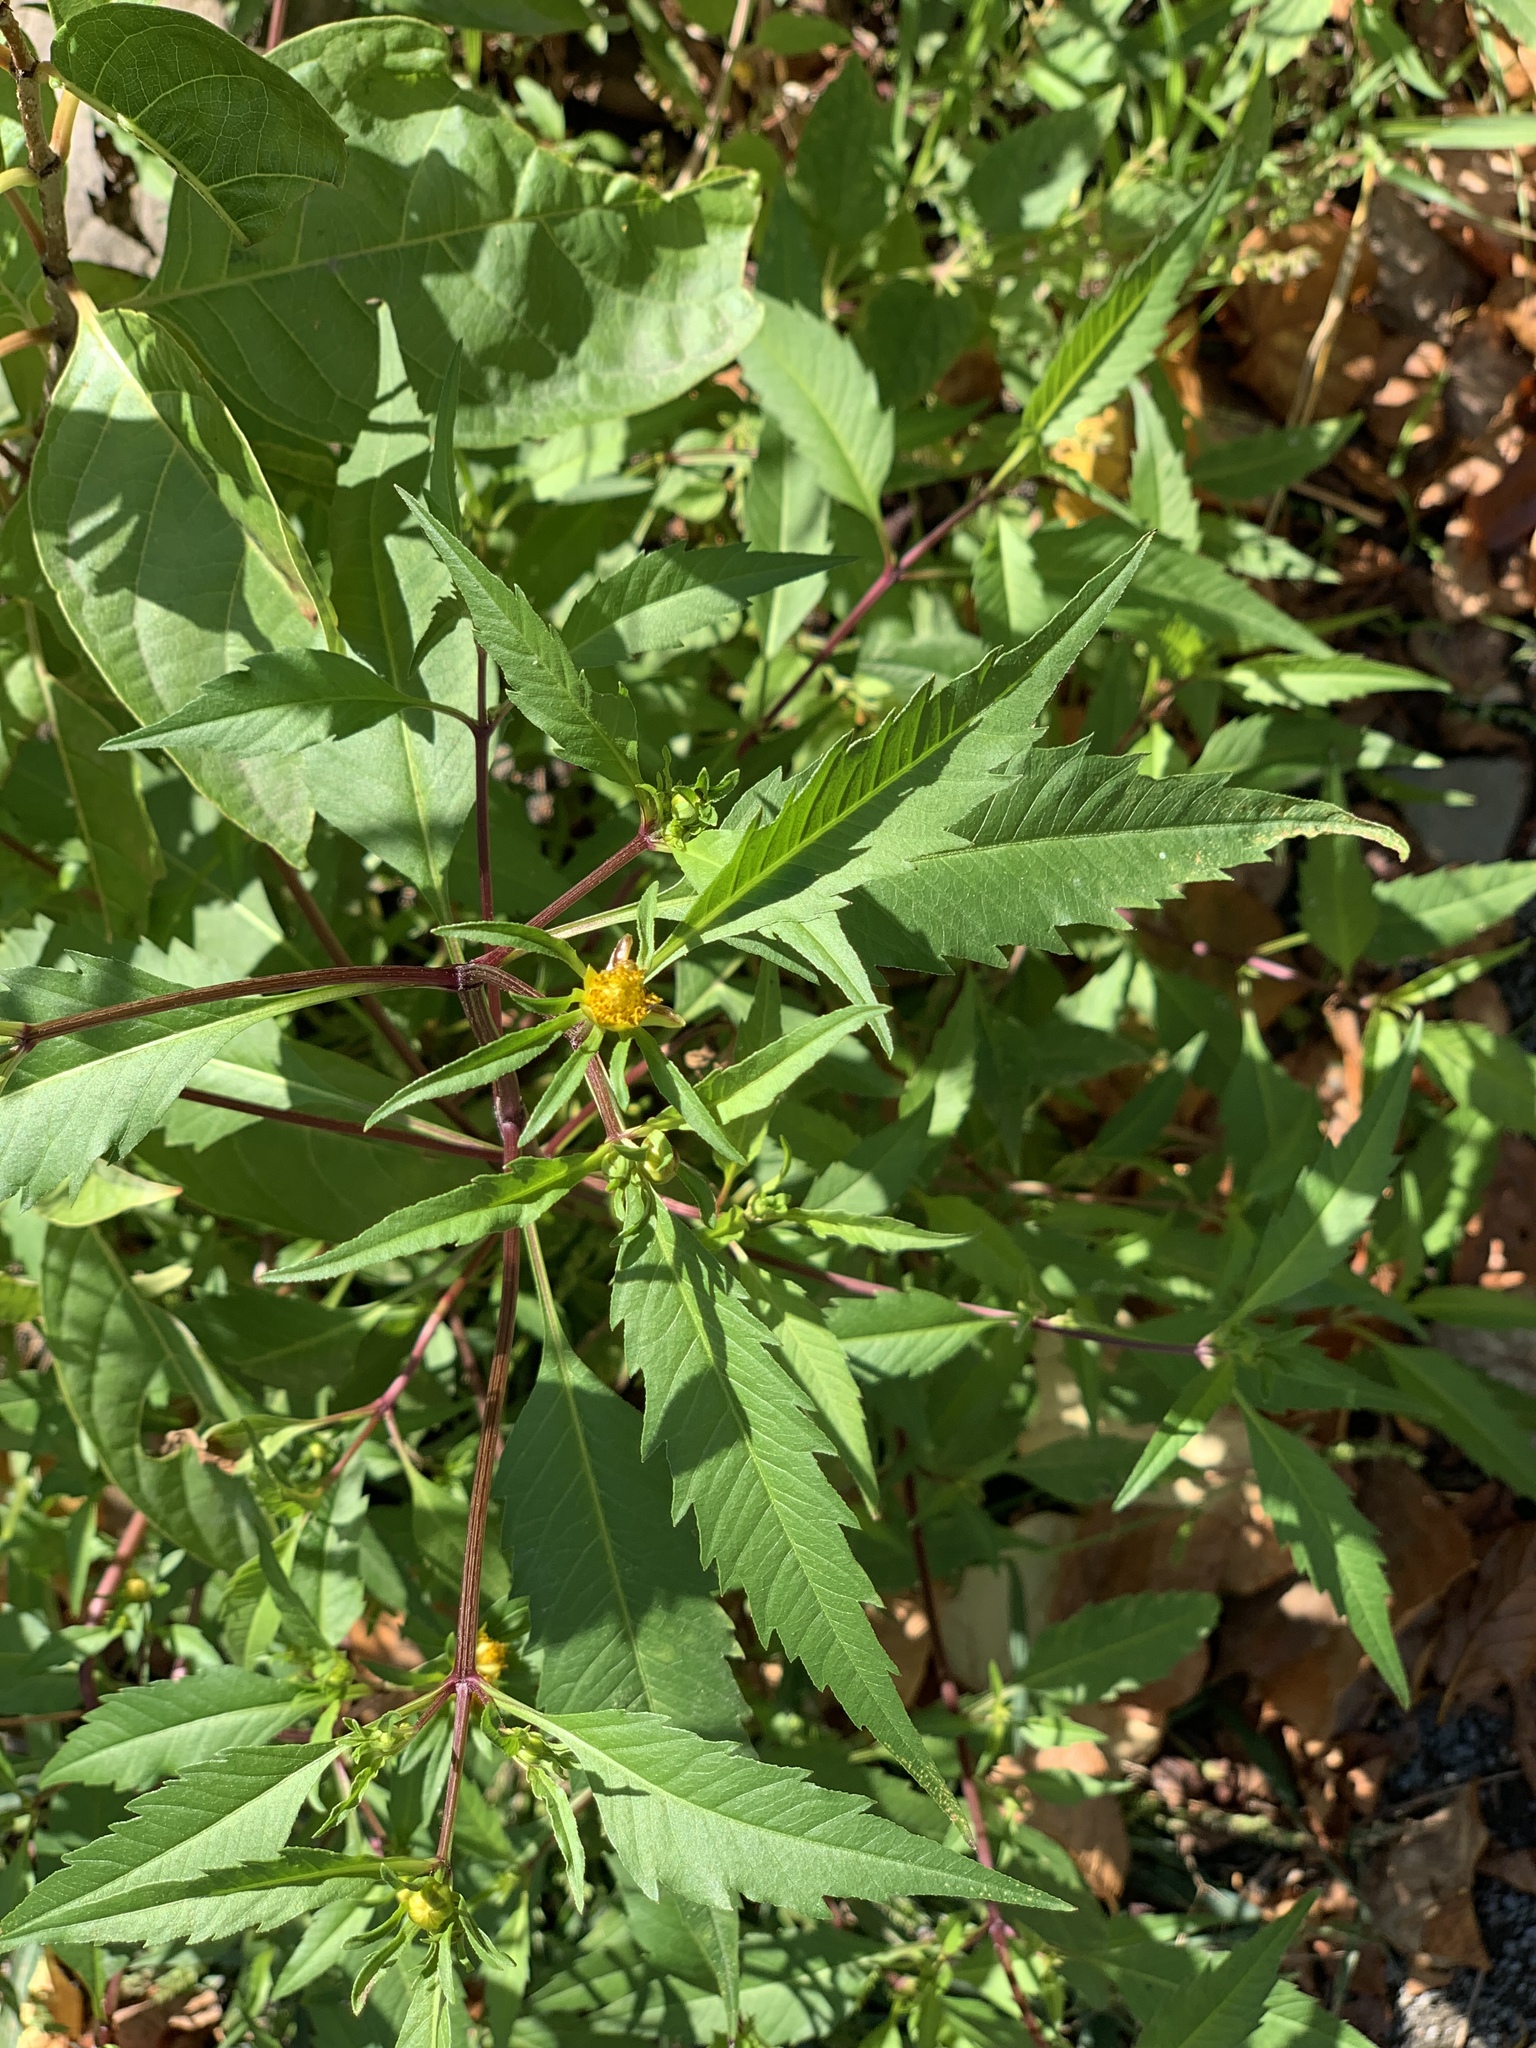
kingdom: Plantae
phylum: Tracheophyta
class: Magnoliopsida
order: Asterales
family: Asteraceae
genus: Bidens
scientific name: Bidens frondosa
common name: Beggarticks
